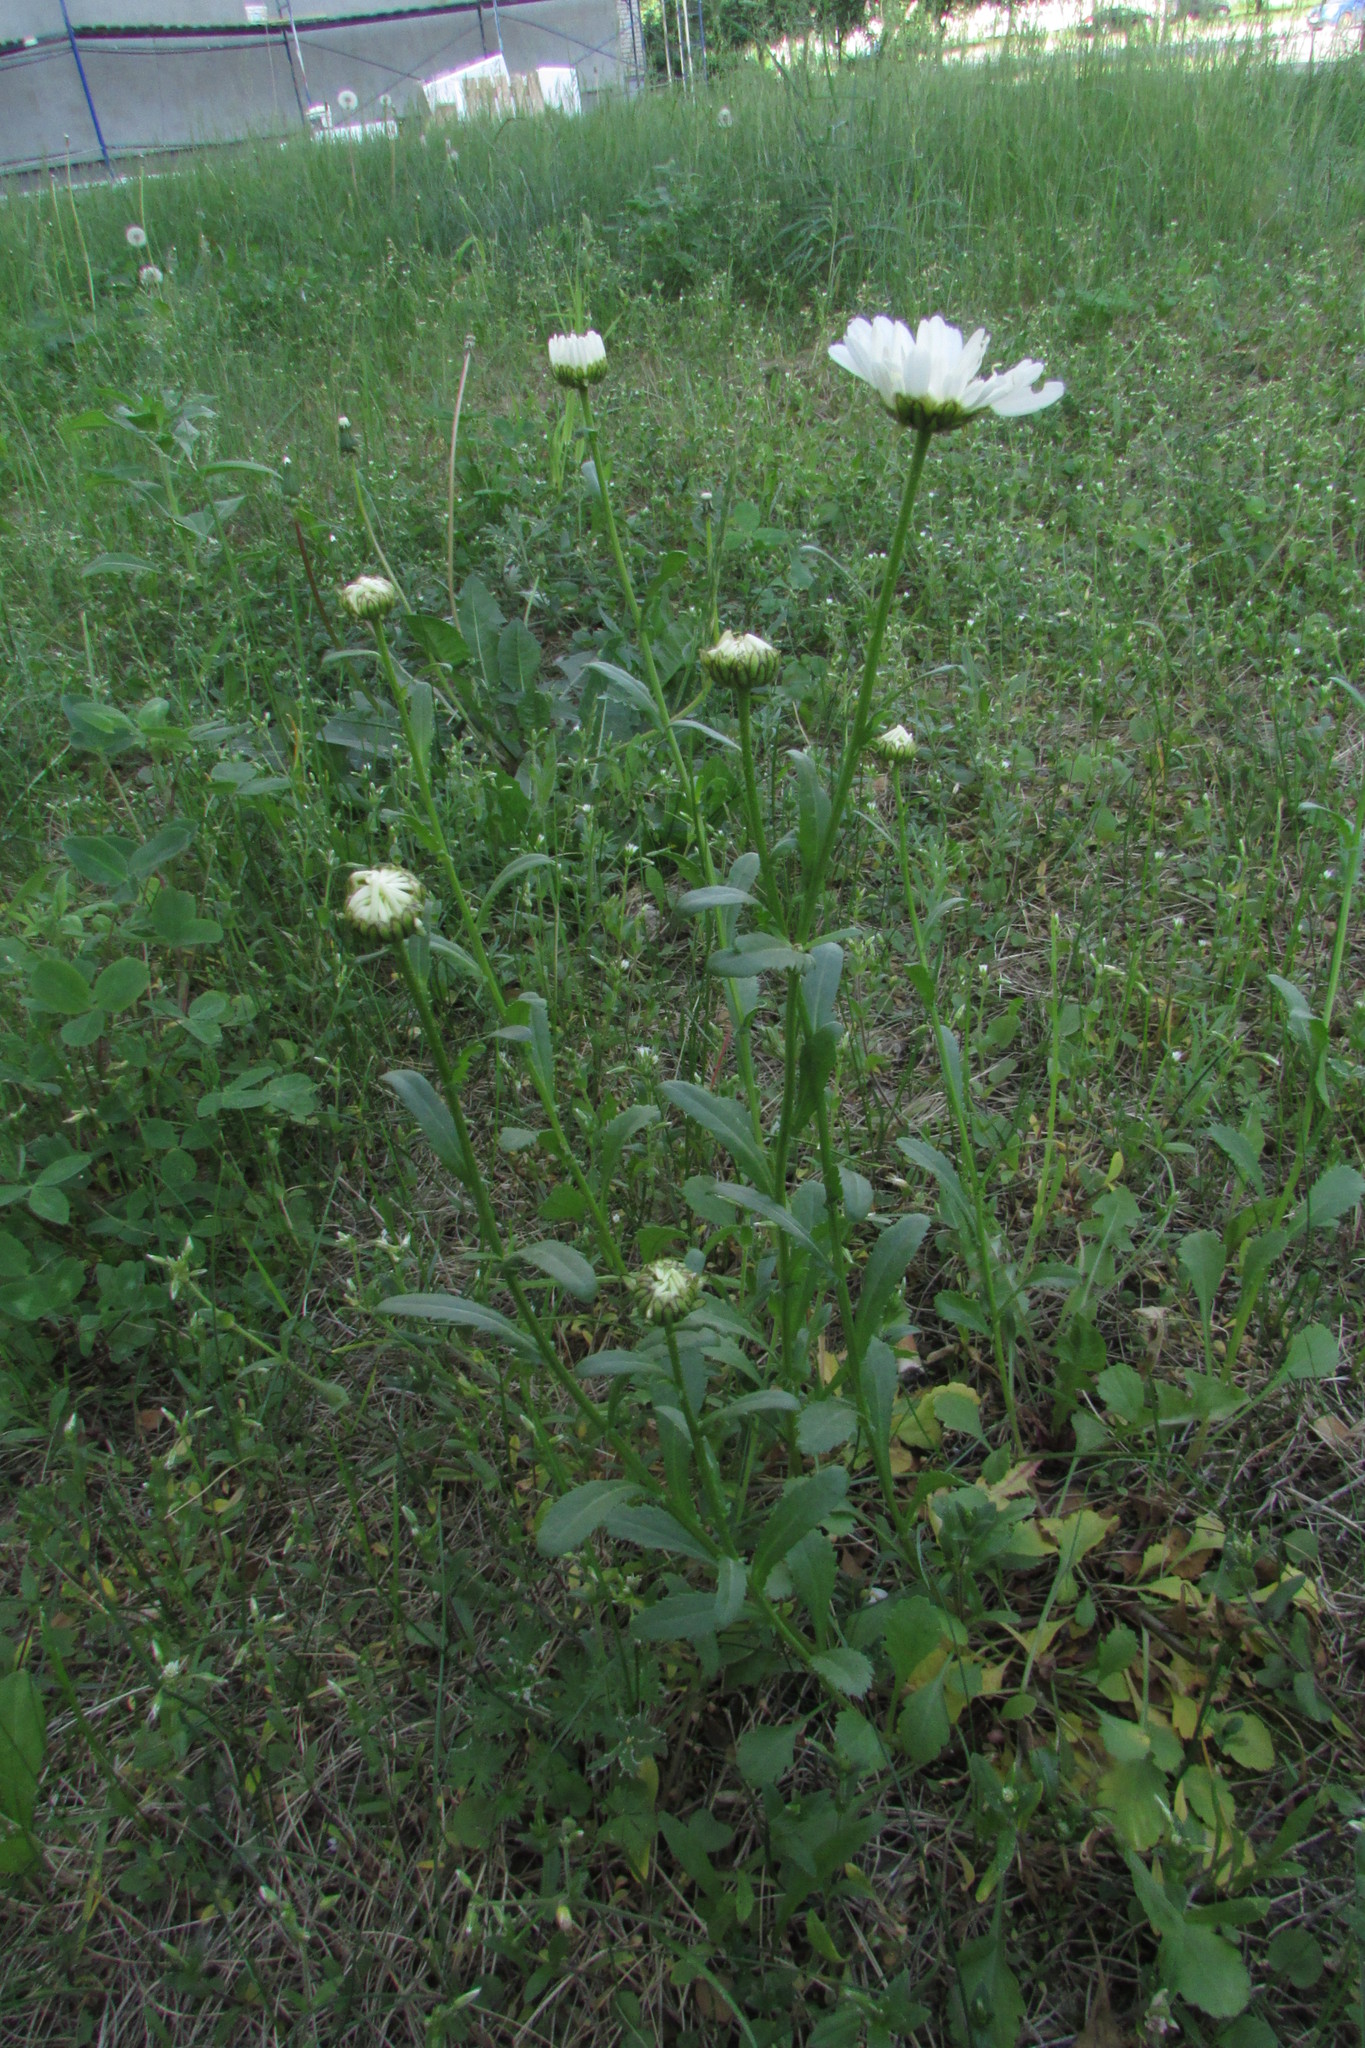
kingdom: Plantae
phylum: Tracheophyta
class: Magnoliopsida
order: Asterales
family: Asteraceae
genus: Leucanthemum
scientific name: Leucanthemum vulgare
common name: Oxeye daisy
